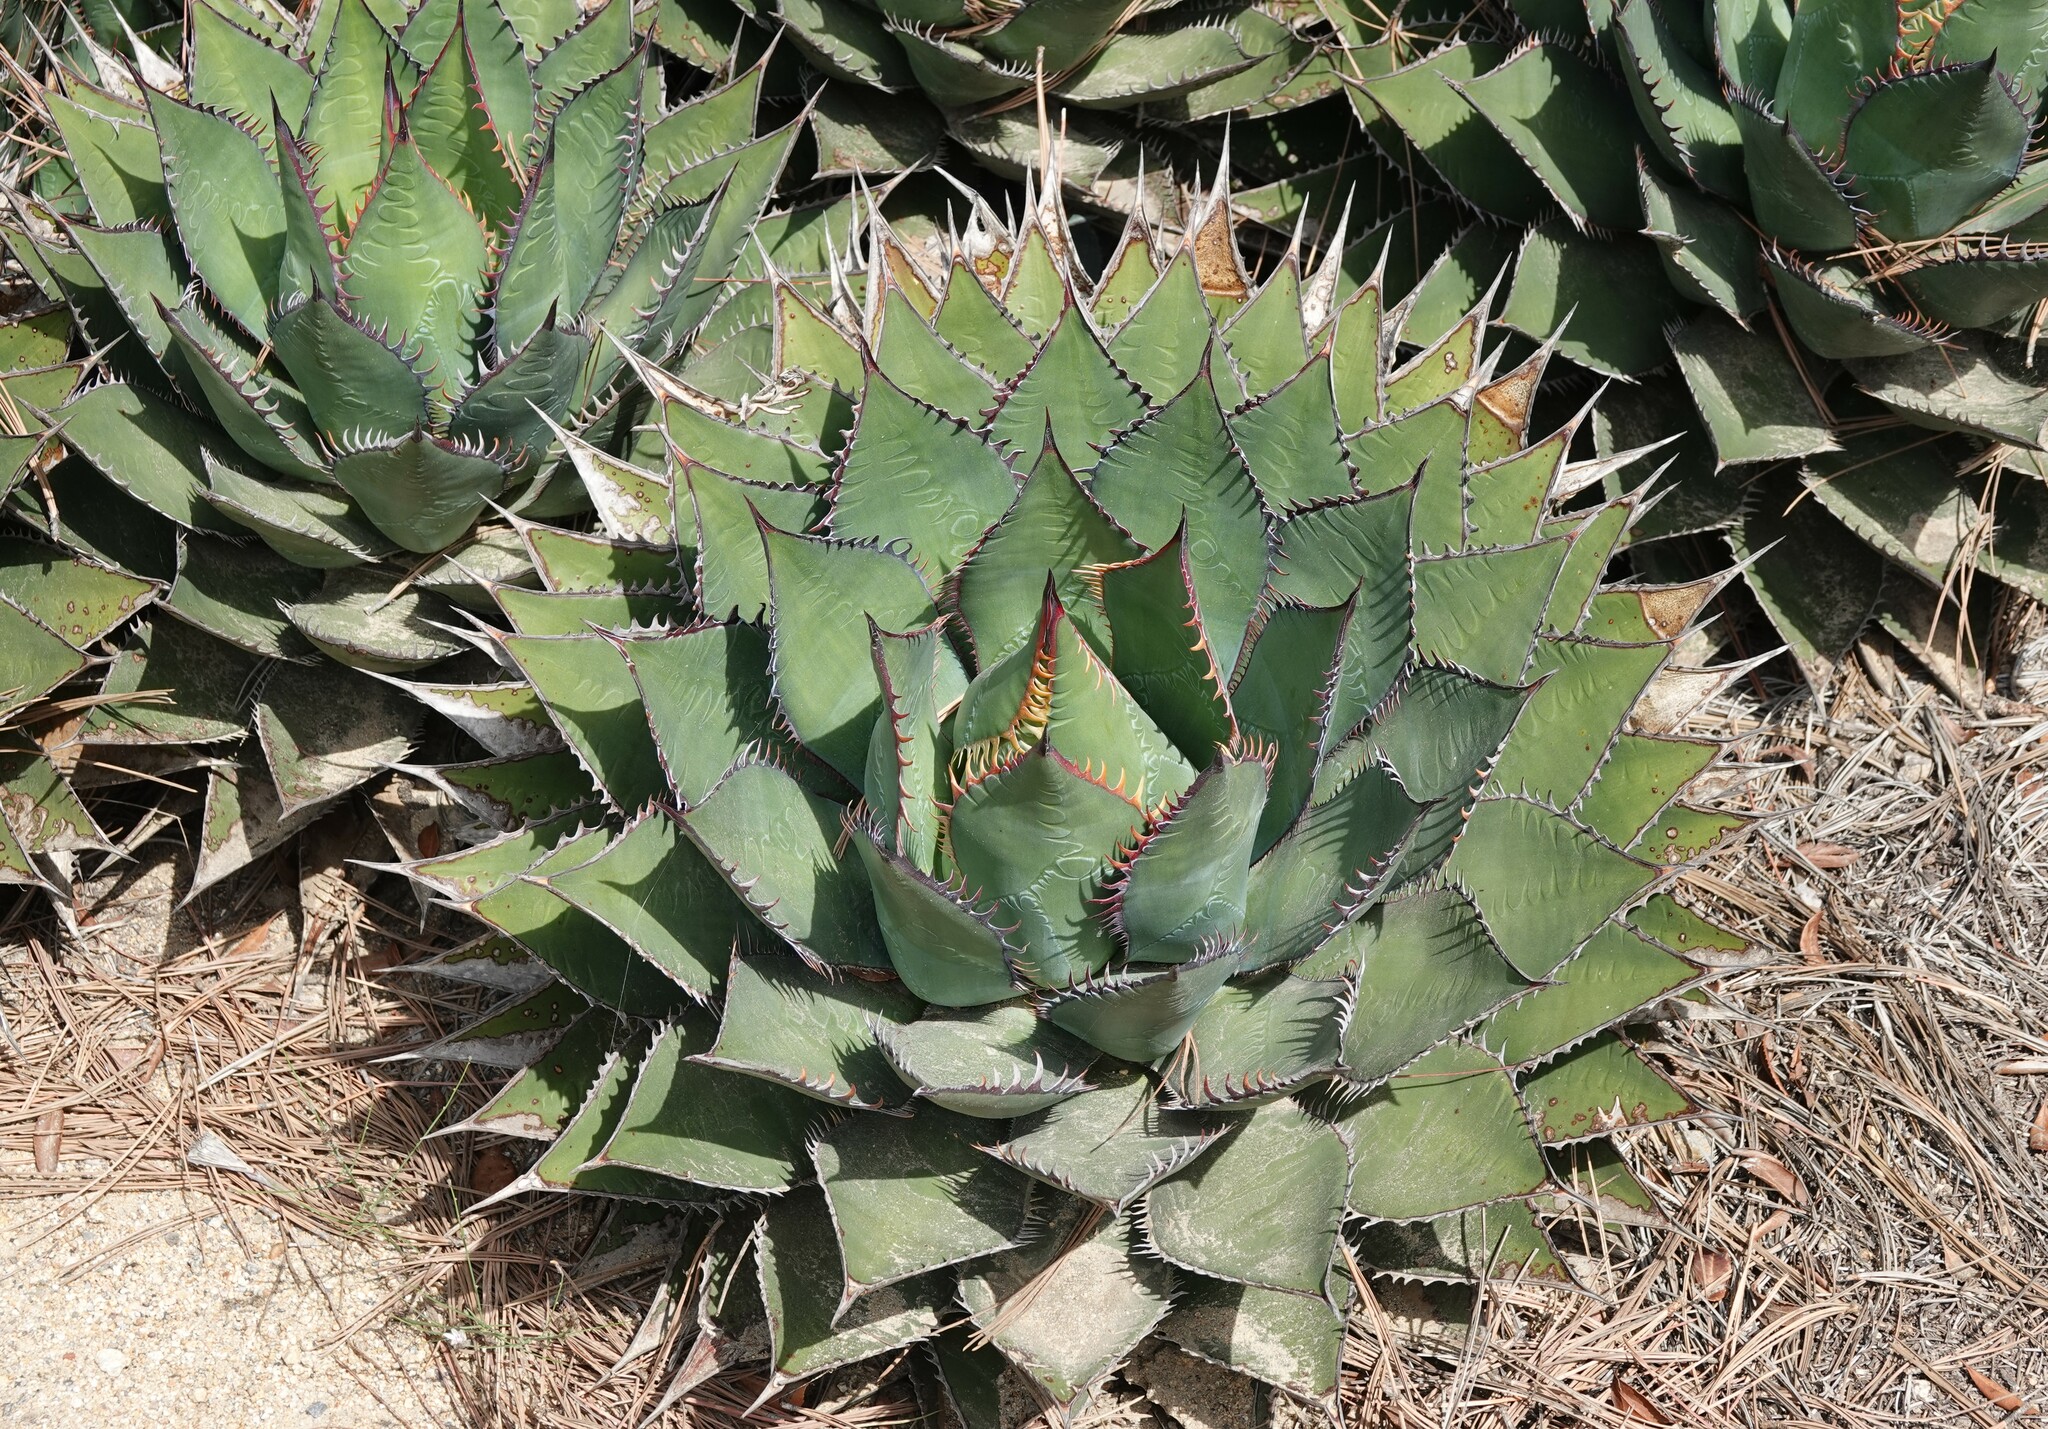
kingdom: Plantae
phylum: Tracheophyta
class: Liliopsida
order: Asparagales
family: Asparagaceae
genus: Agave
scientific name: Agave shawii
